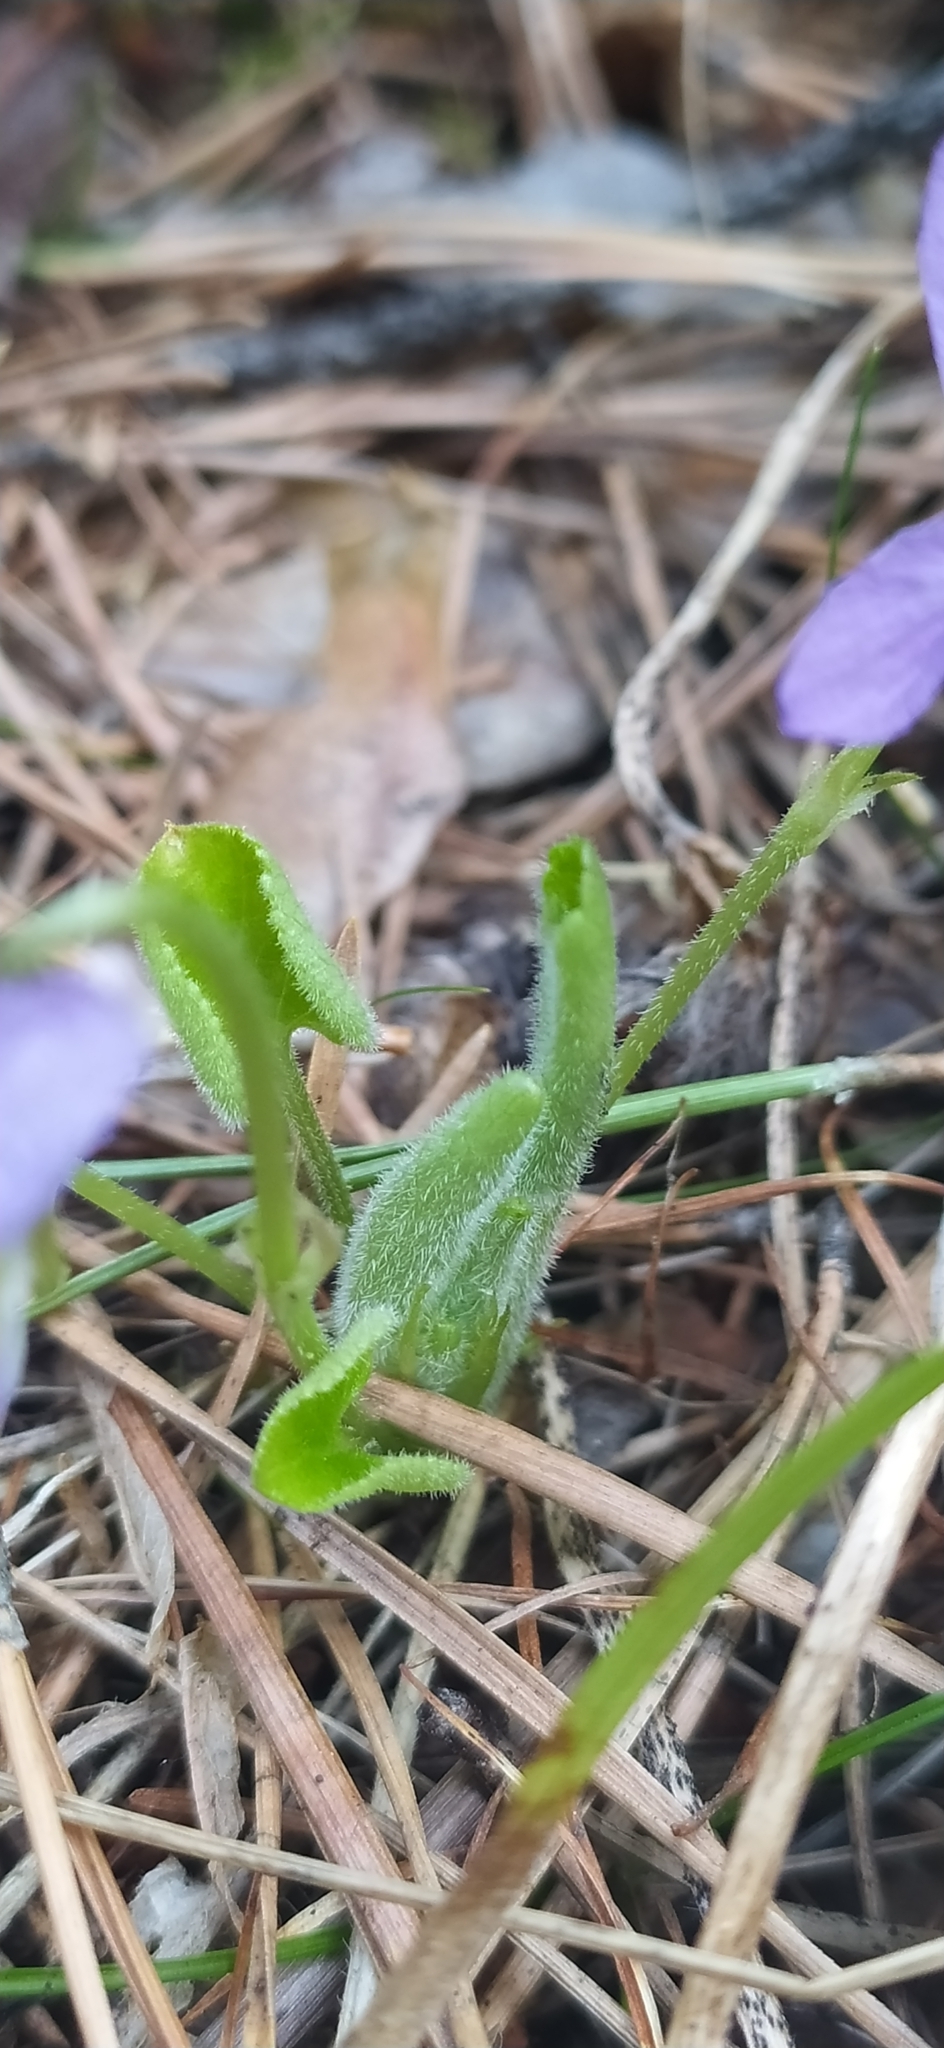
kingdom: Plantae
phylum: Tracheophyta
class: Magnoliopsida
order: Malpighiales
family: Violaceae
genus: Viola
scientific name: Viola collina
